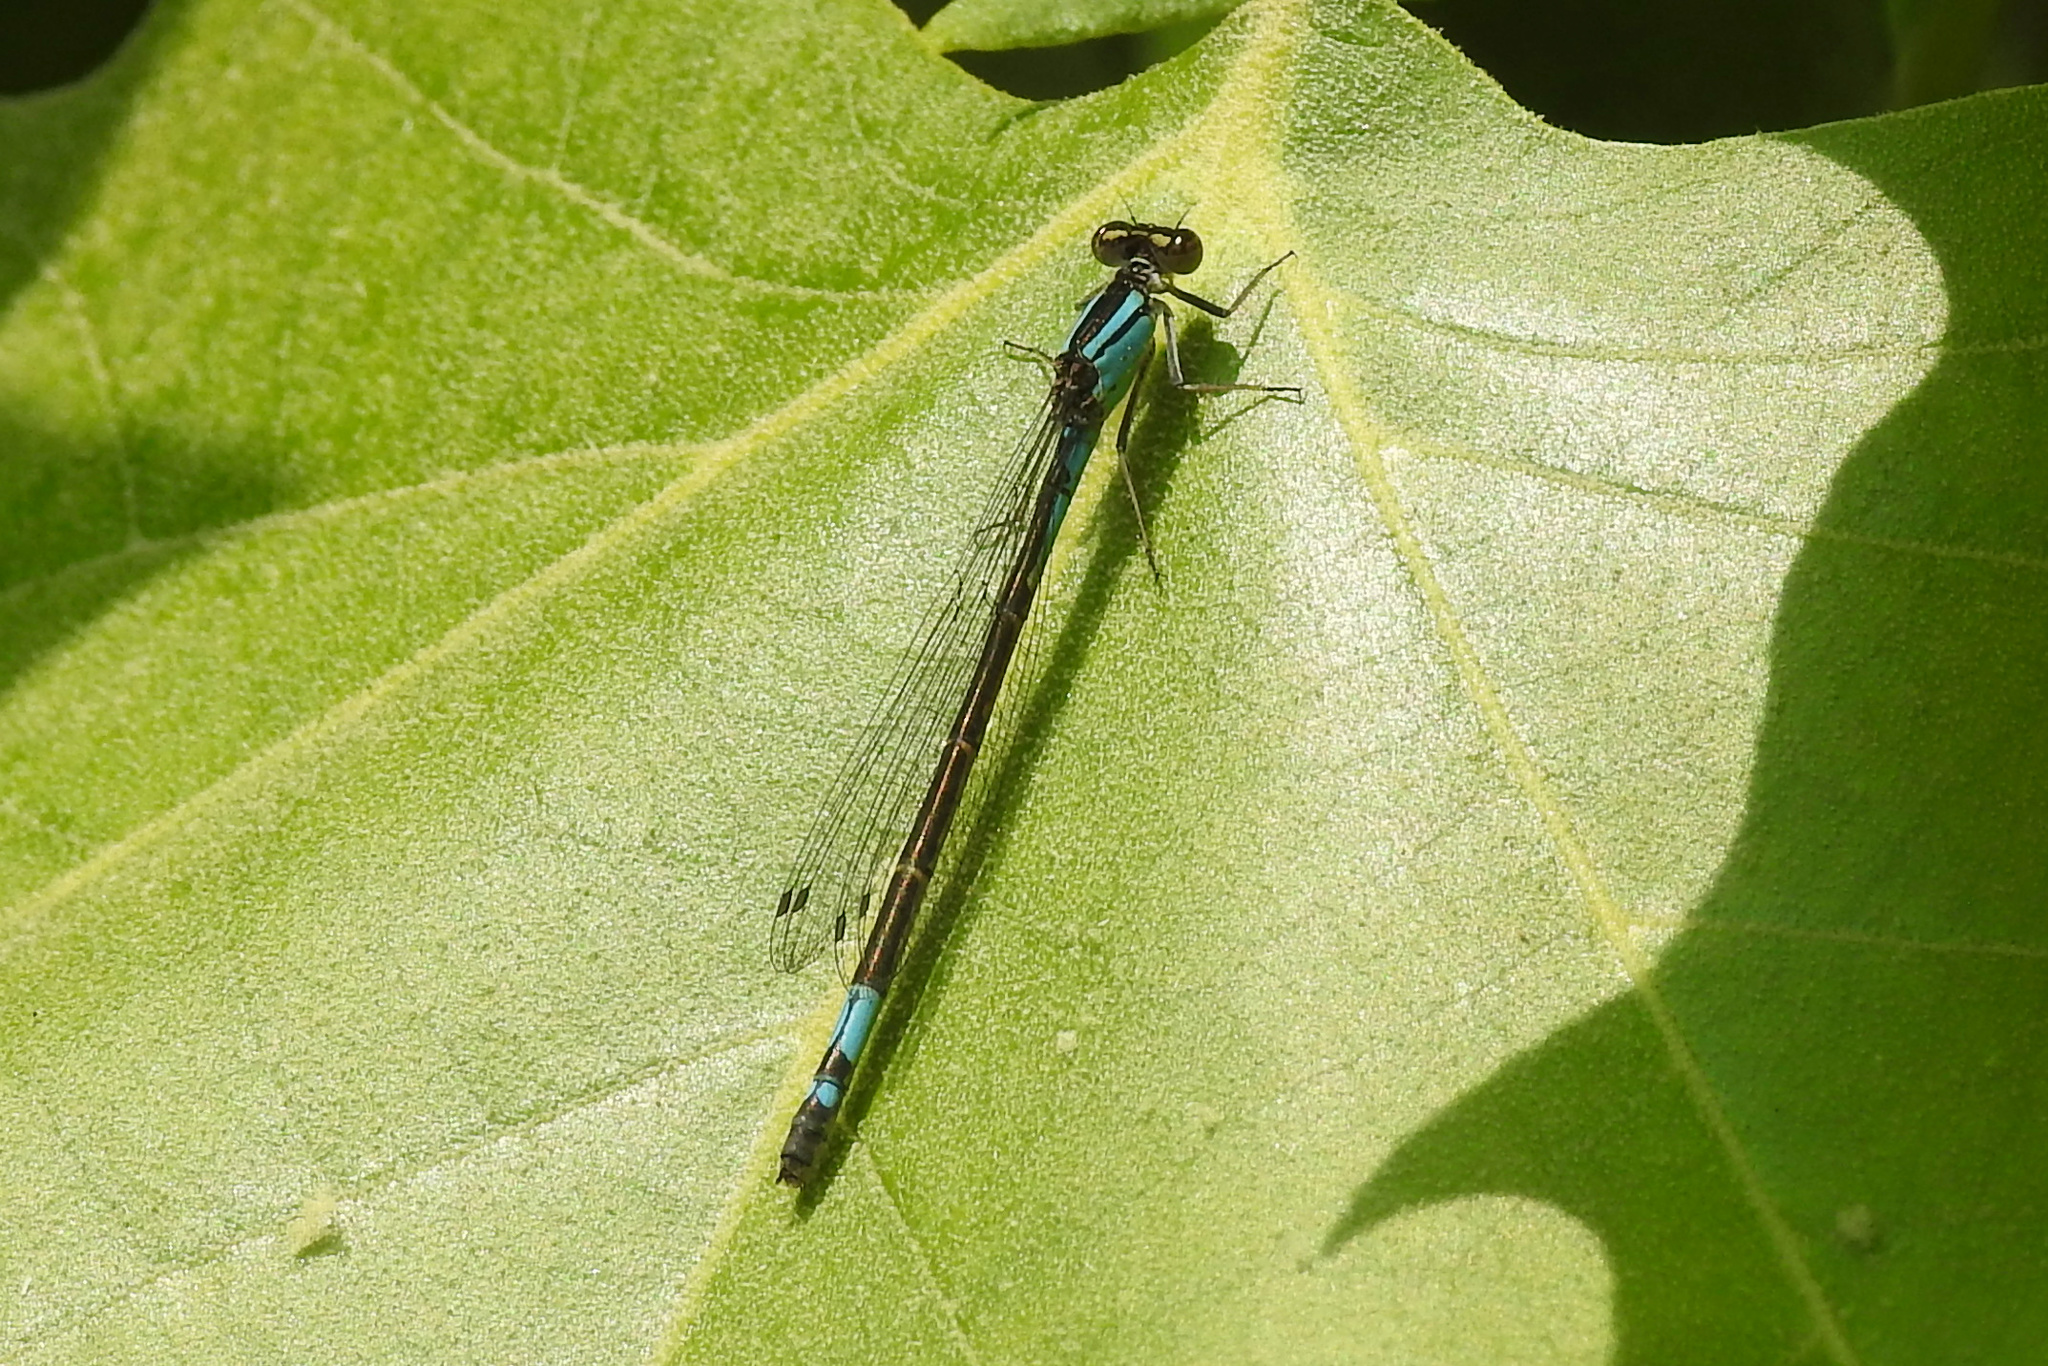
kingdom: Animalia
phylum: Arthropoda
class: Insecta
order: Odonata
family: Coenagrionidae
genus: Enallagma
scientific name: Enallagma aspersum
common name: Azure bluet
